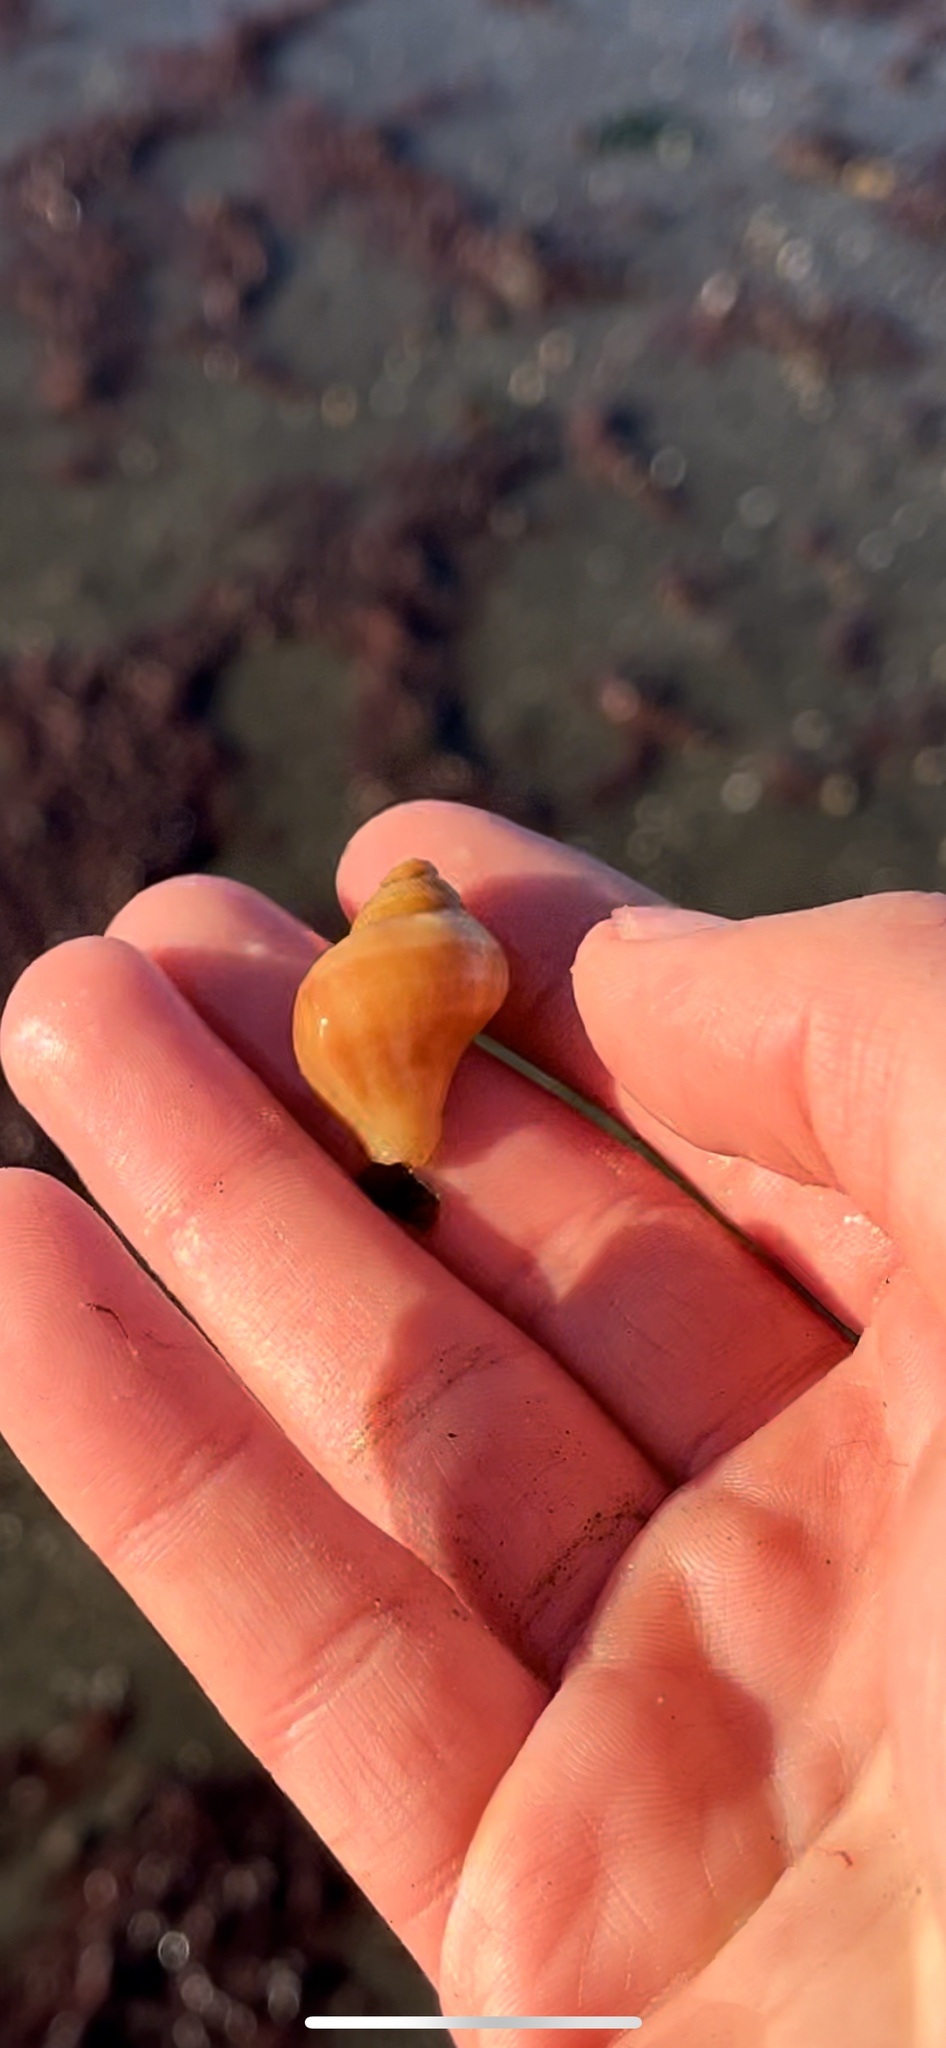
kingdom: Animalia
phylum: Mollusca
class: Gastropoda
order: Neogastropoda
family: Muricidae
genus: Nucella
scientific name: Nucella lamellosa
